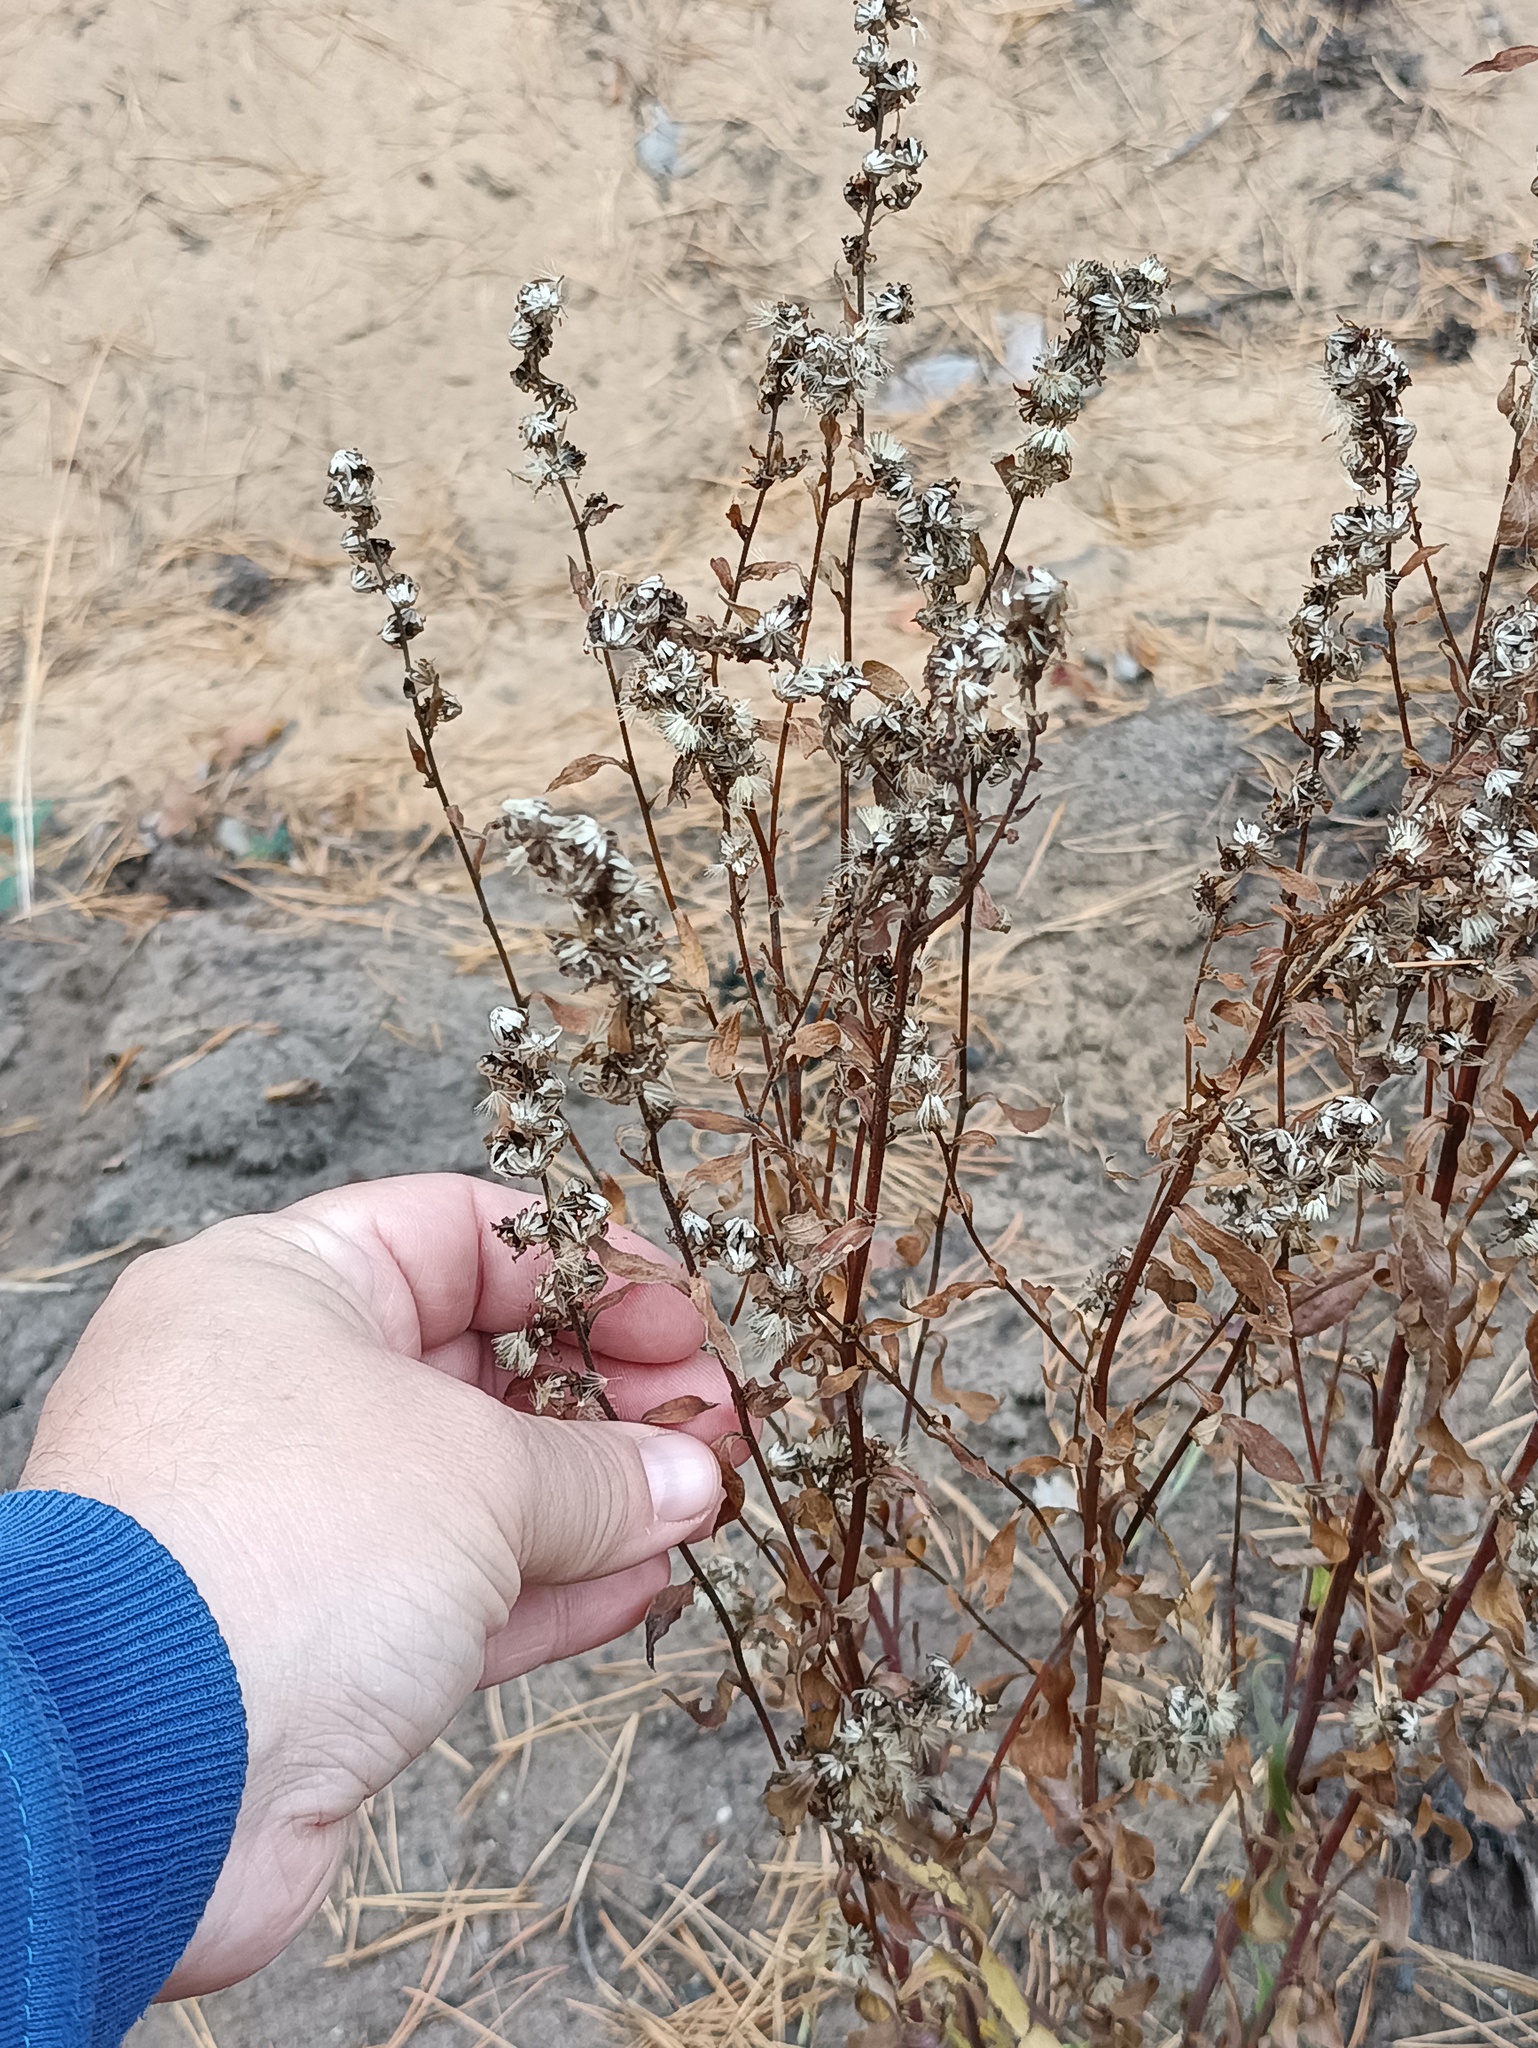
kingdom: Plantae
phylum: Tracheophyta
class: Magnoliopsida
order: Asterales
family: Asteraceae
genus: Artemisia
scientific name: Artemisia vulgaris
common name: Mugwort
